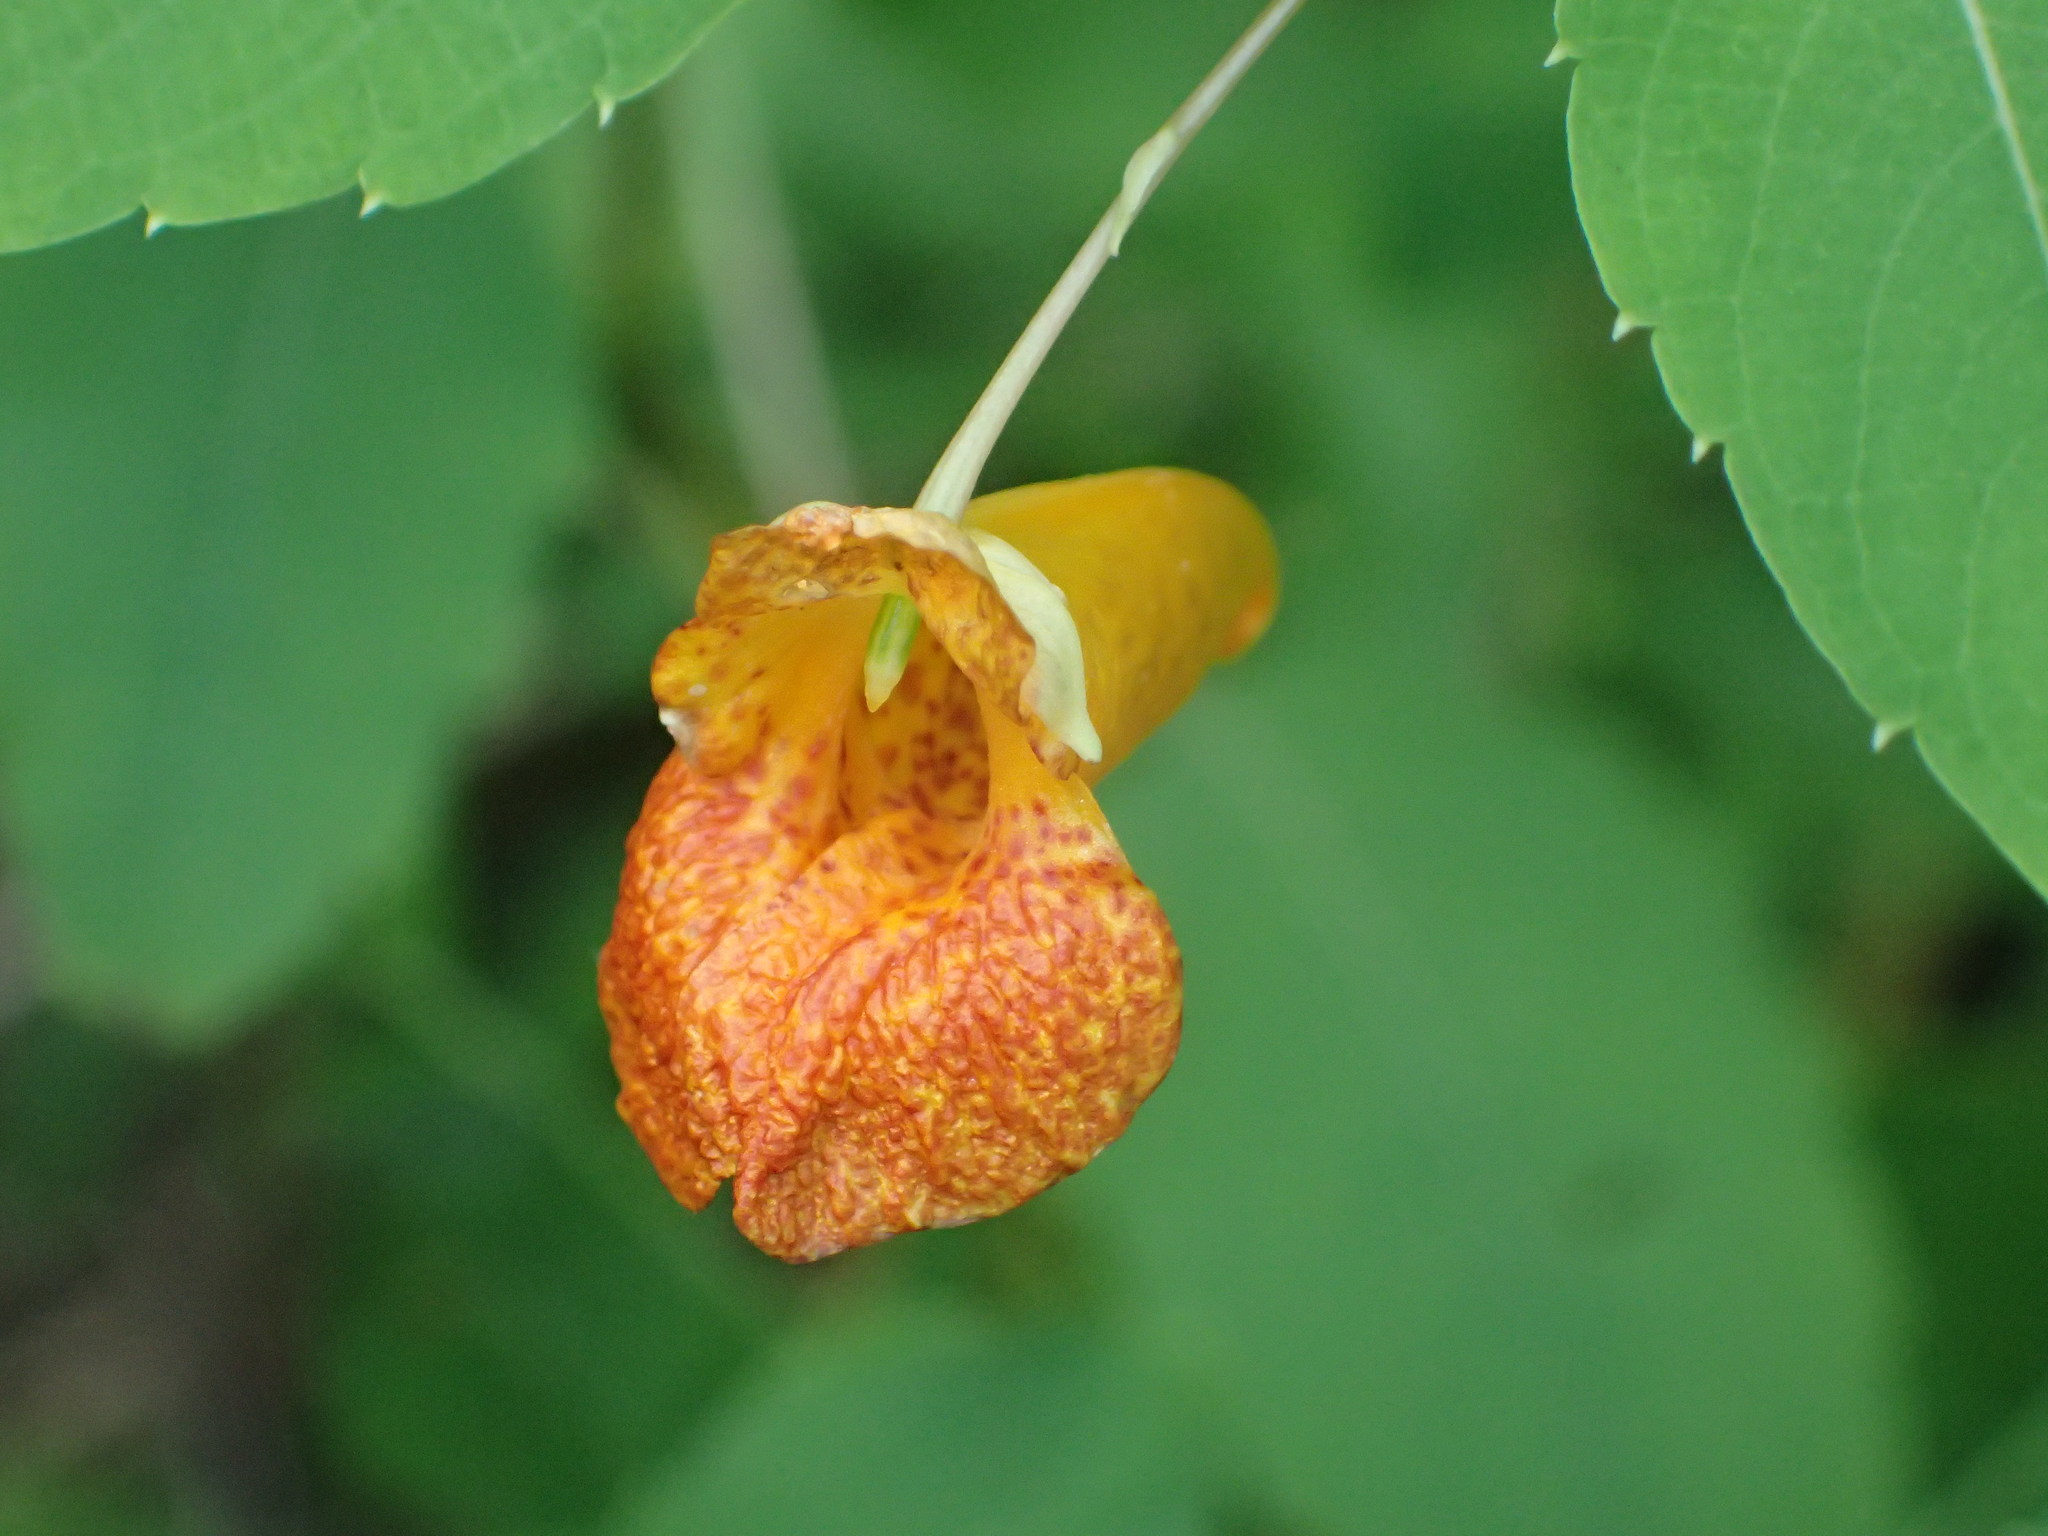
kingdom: Plantae
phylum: Tracheophyta
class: Magnoliopsida
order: Ericales
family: Balsaminaceae
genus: Impatiens
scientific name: Impatiens capensis
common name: Orange balsam
